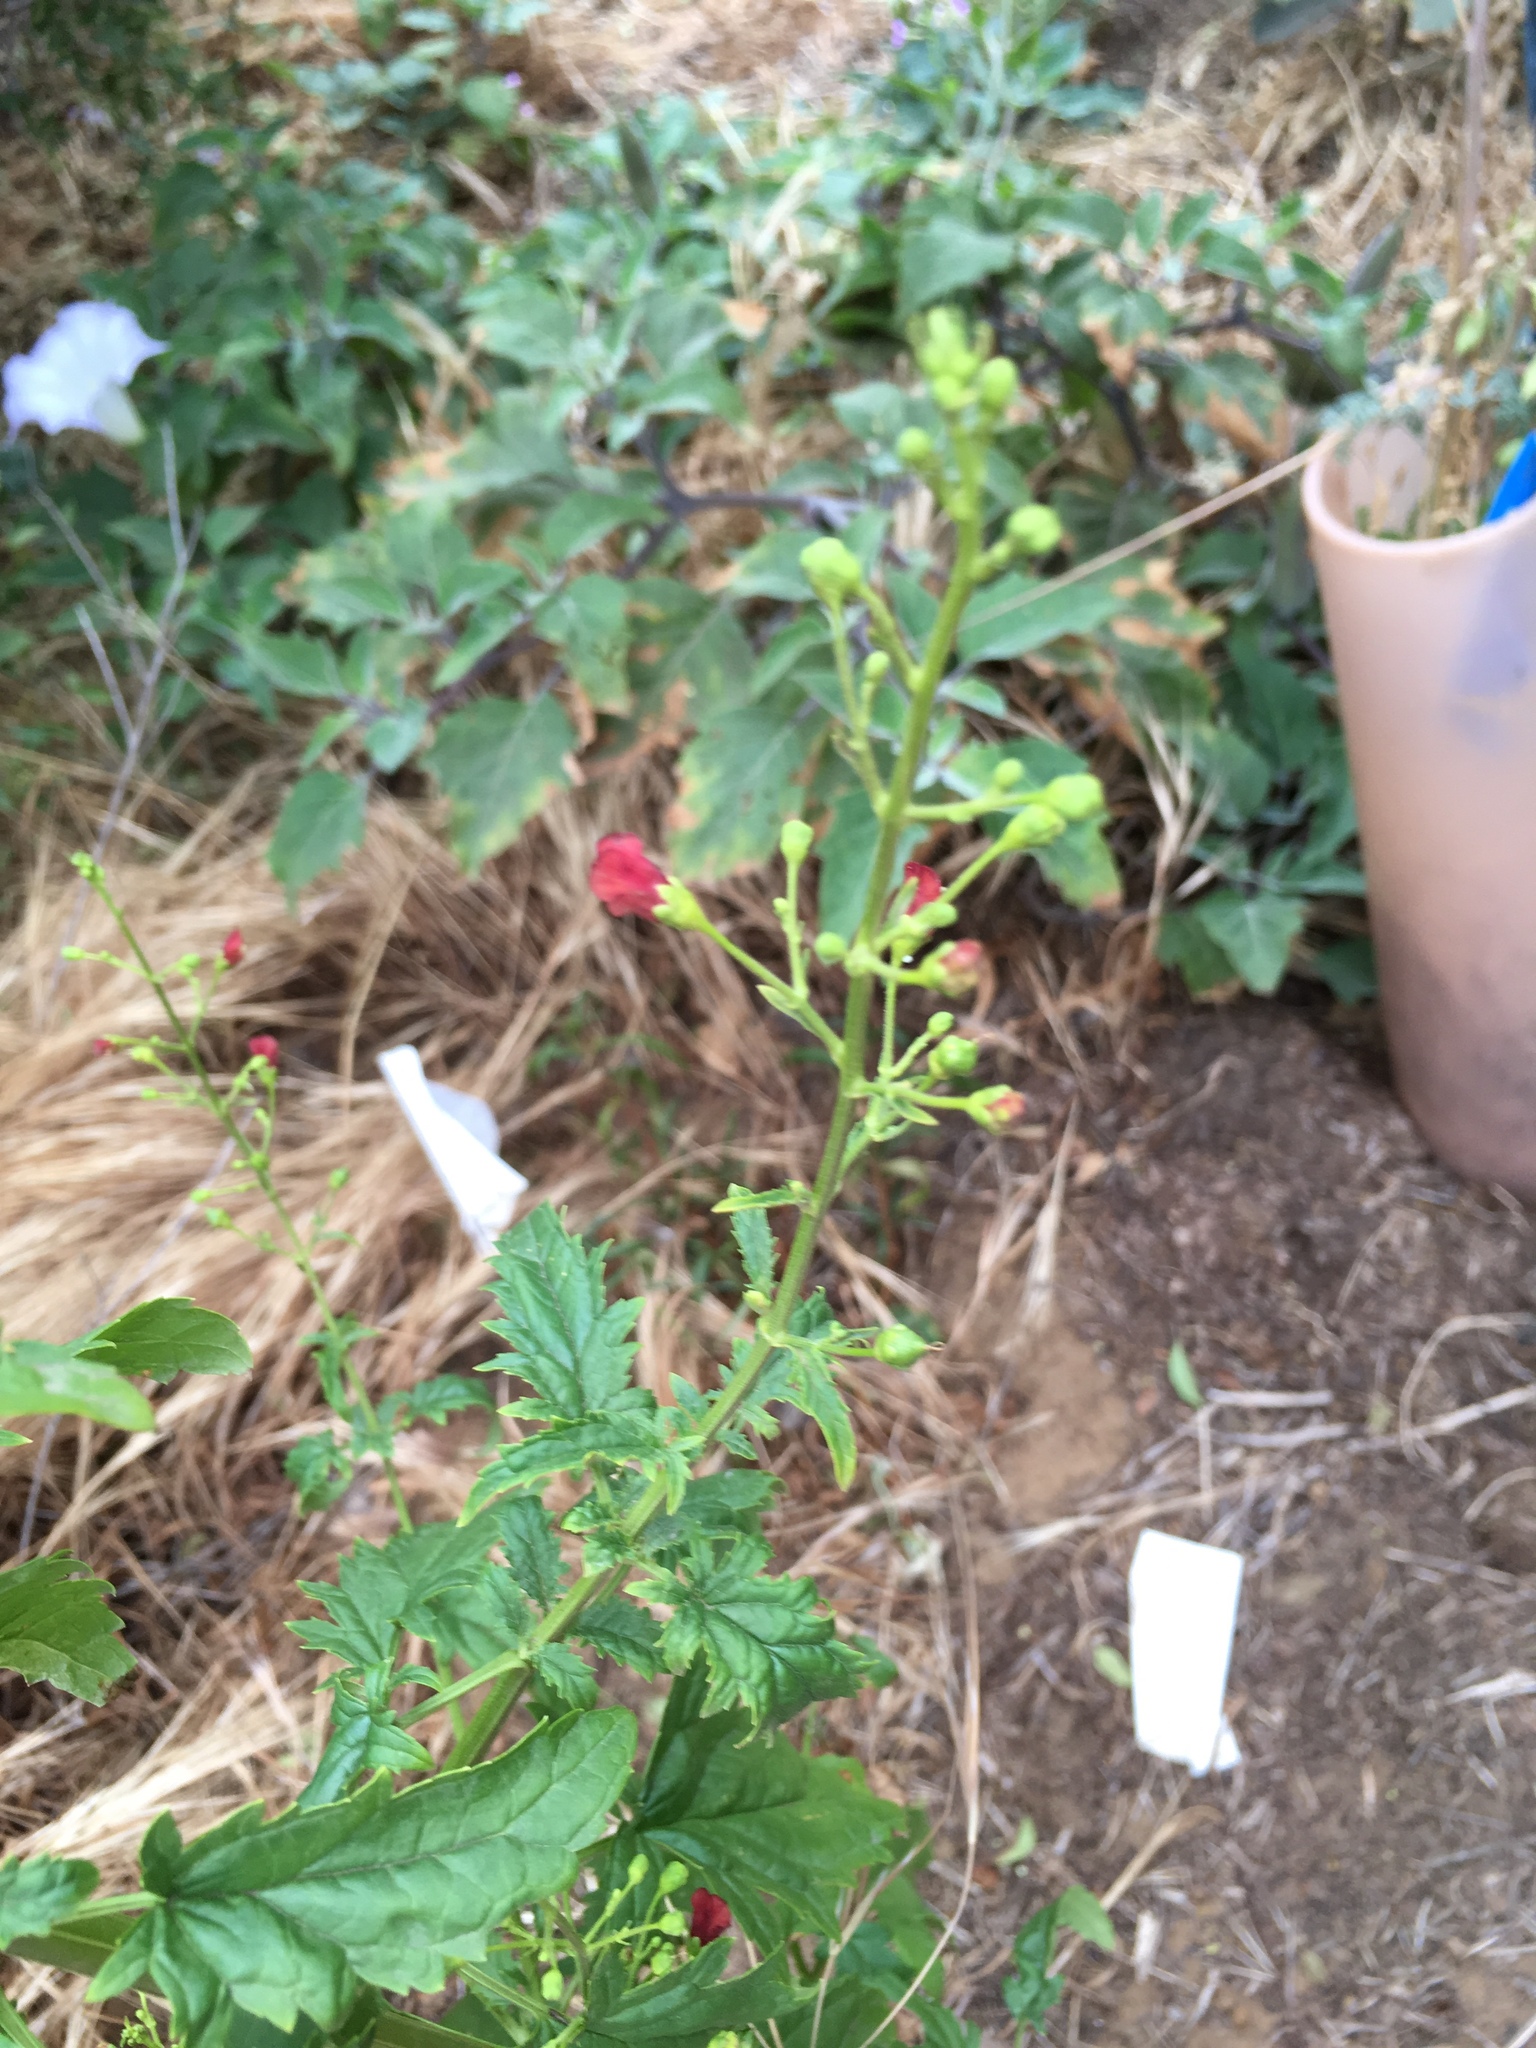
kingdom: Plantae
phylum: Tracheophyta
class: Magnoliopsida
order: Lamiales
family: Scrophulariaceae
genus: Scrophularia
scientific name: Scrophularia californica
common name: California figwort
